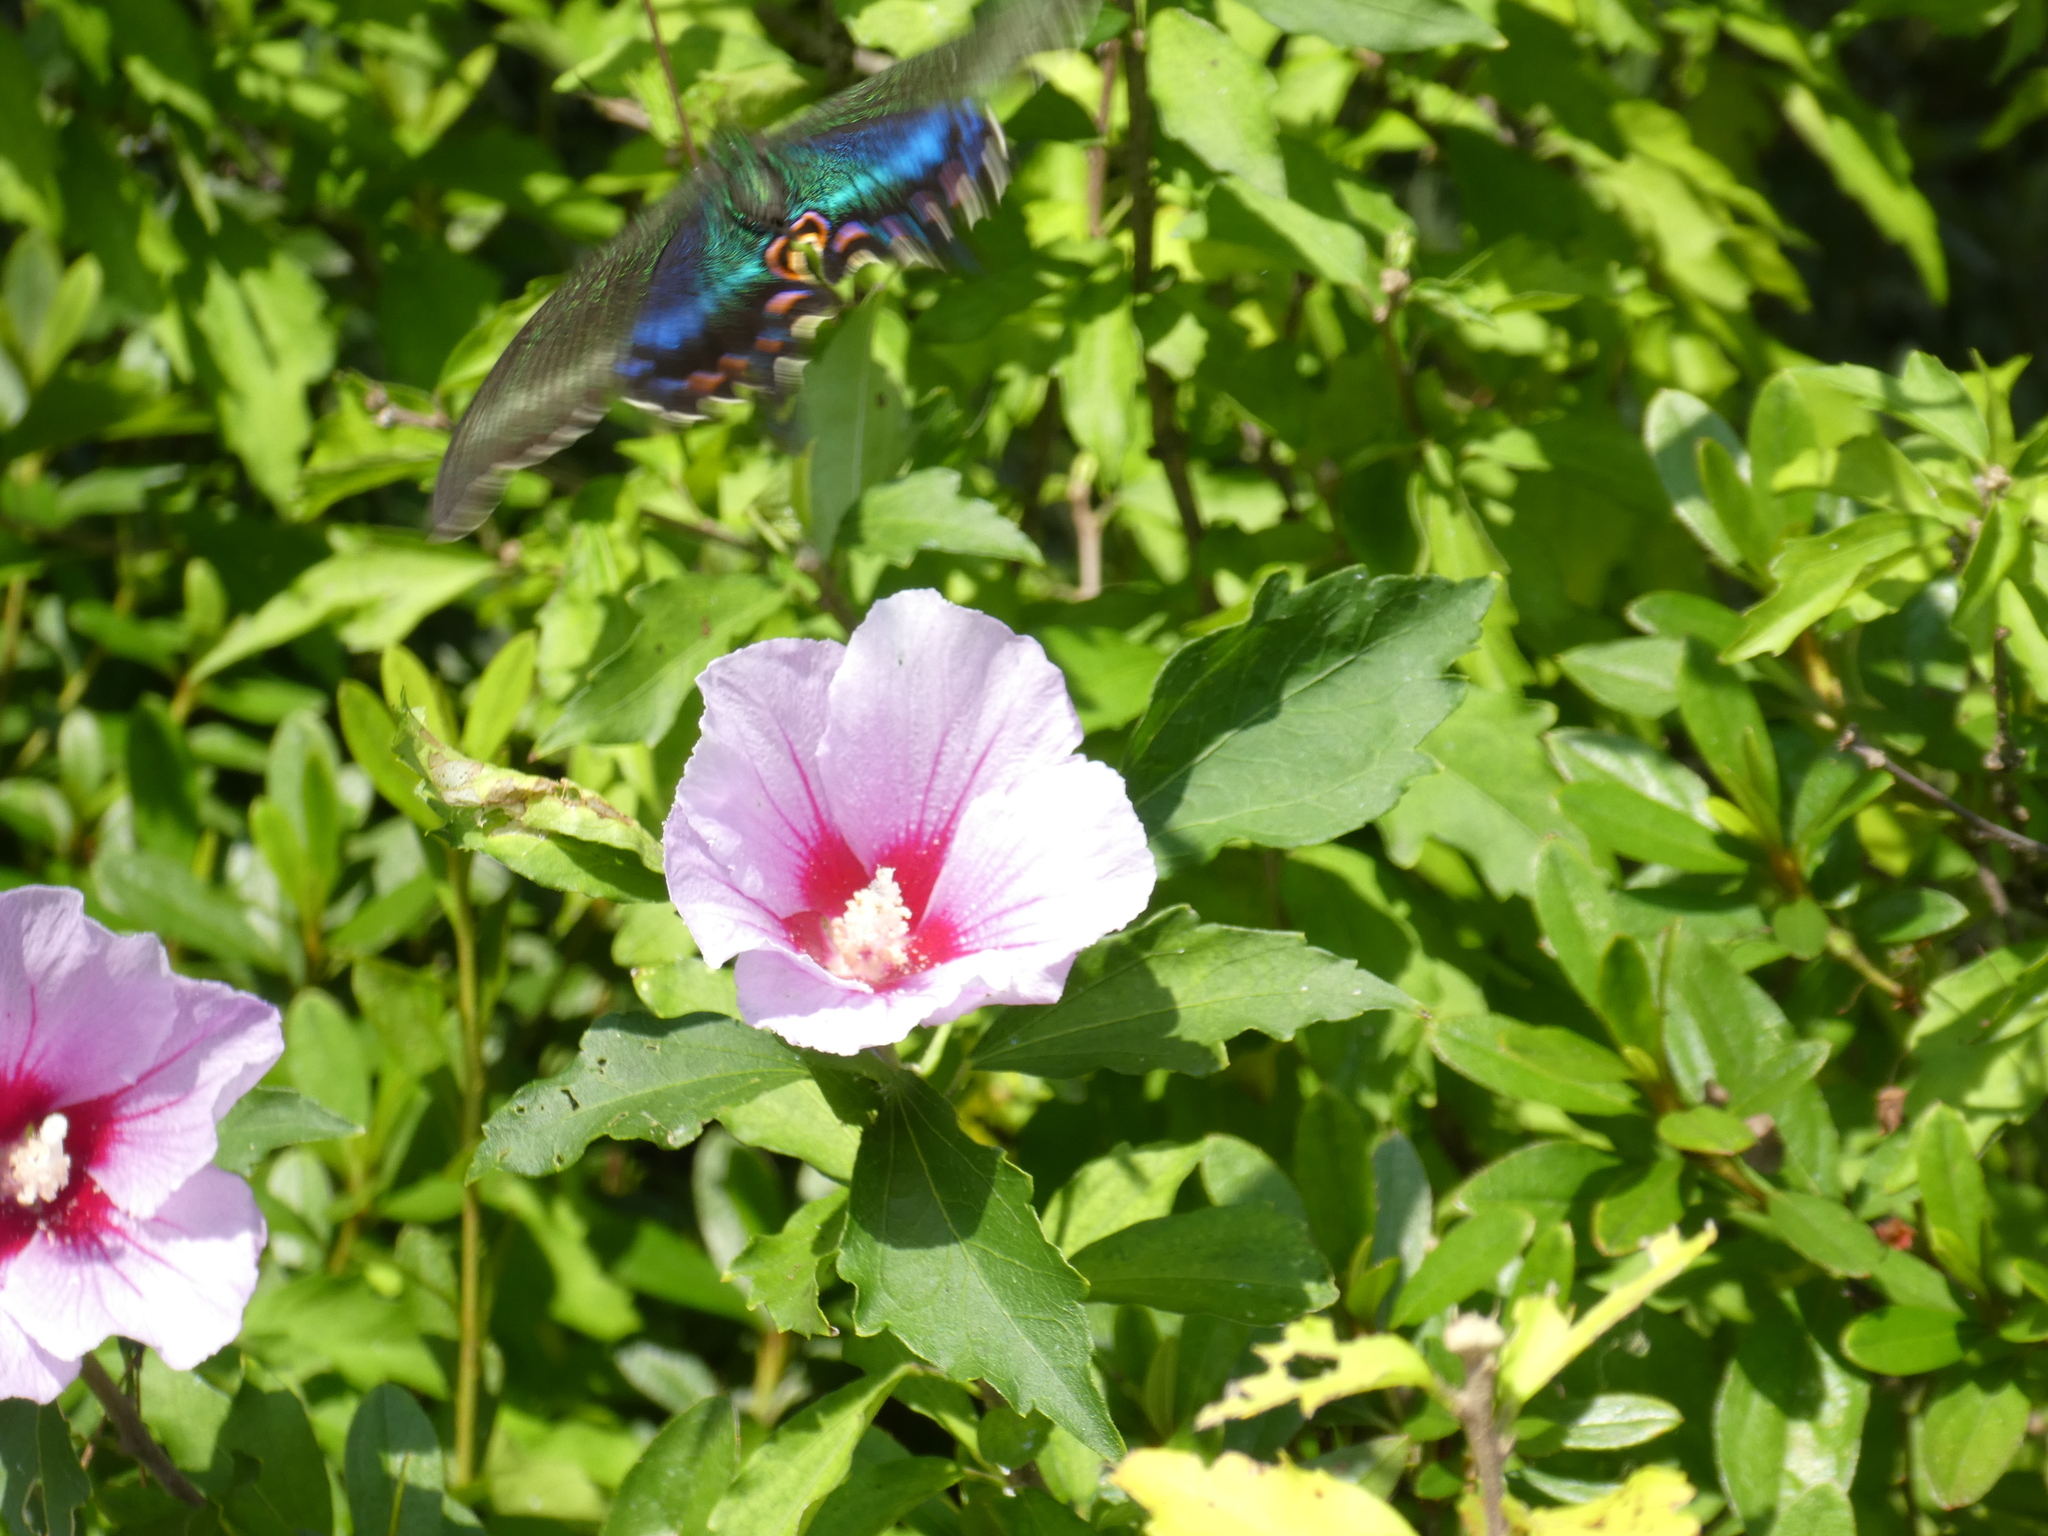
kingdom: Animalia
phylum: Arthropoda
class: Insecta
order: Lepidoptera
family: Papilionidae
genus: Papilio
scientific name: Papilio maackii
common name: Alpine black swallowtail
